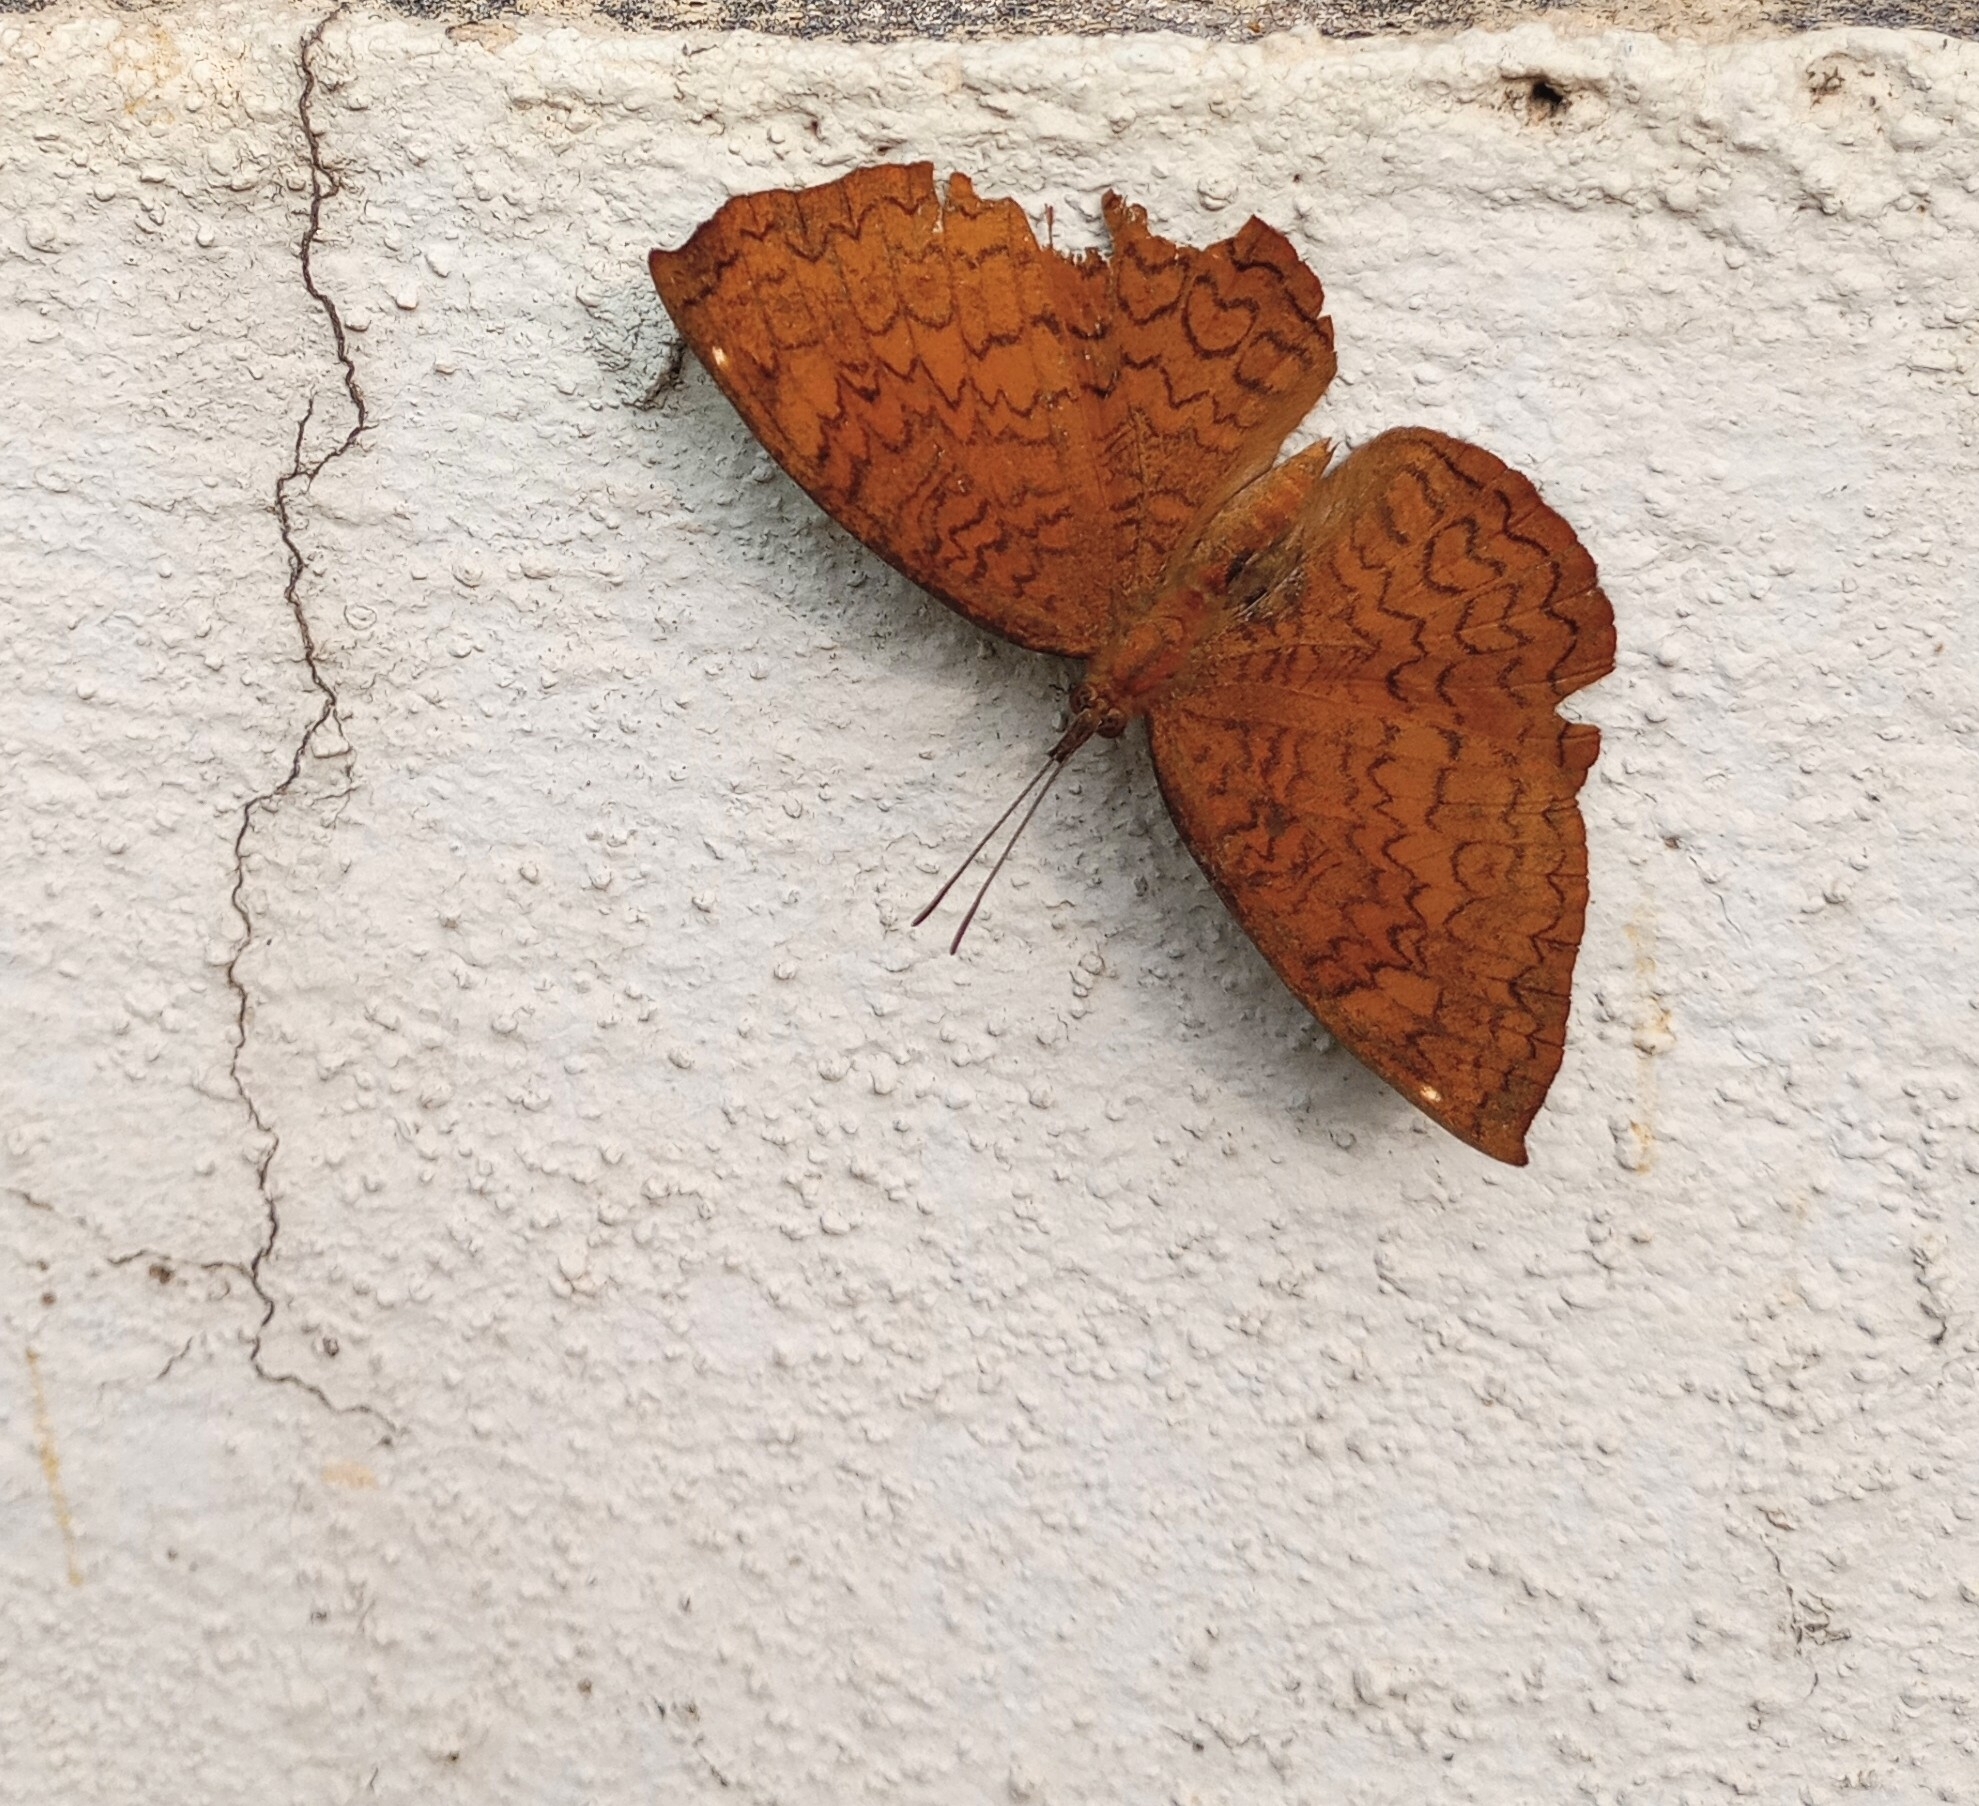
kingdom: Animalia
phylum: Arthropoda
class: Insecta
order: Lepidoptera
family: Nymphalidae
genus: Ariadne
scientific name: Ariadne merione
